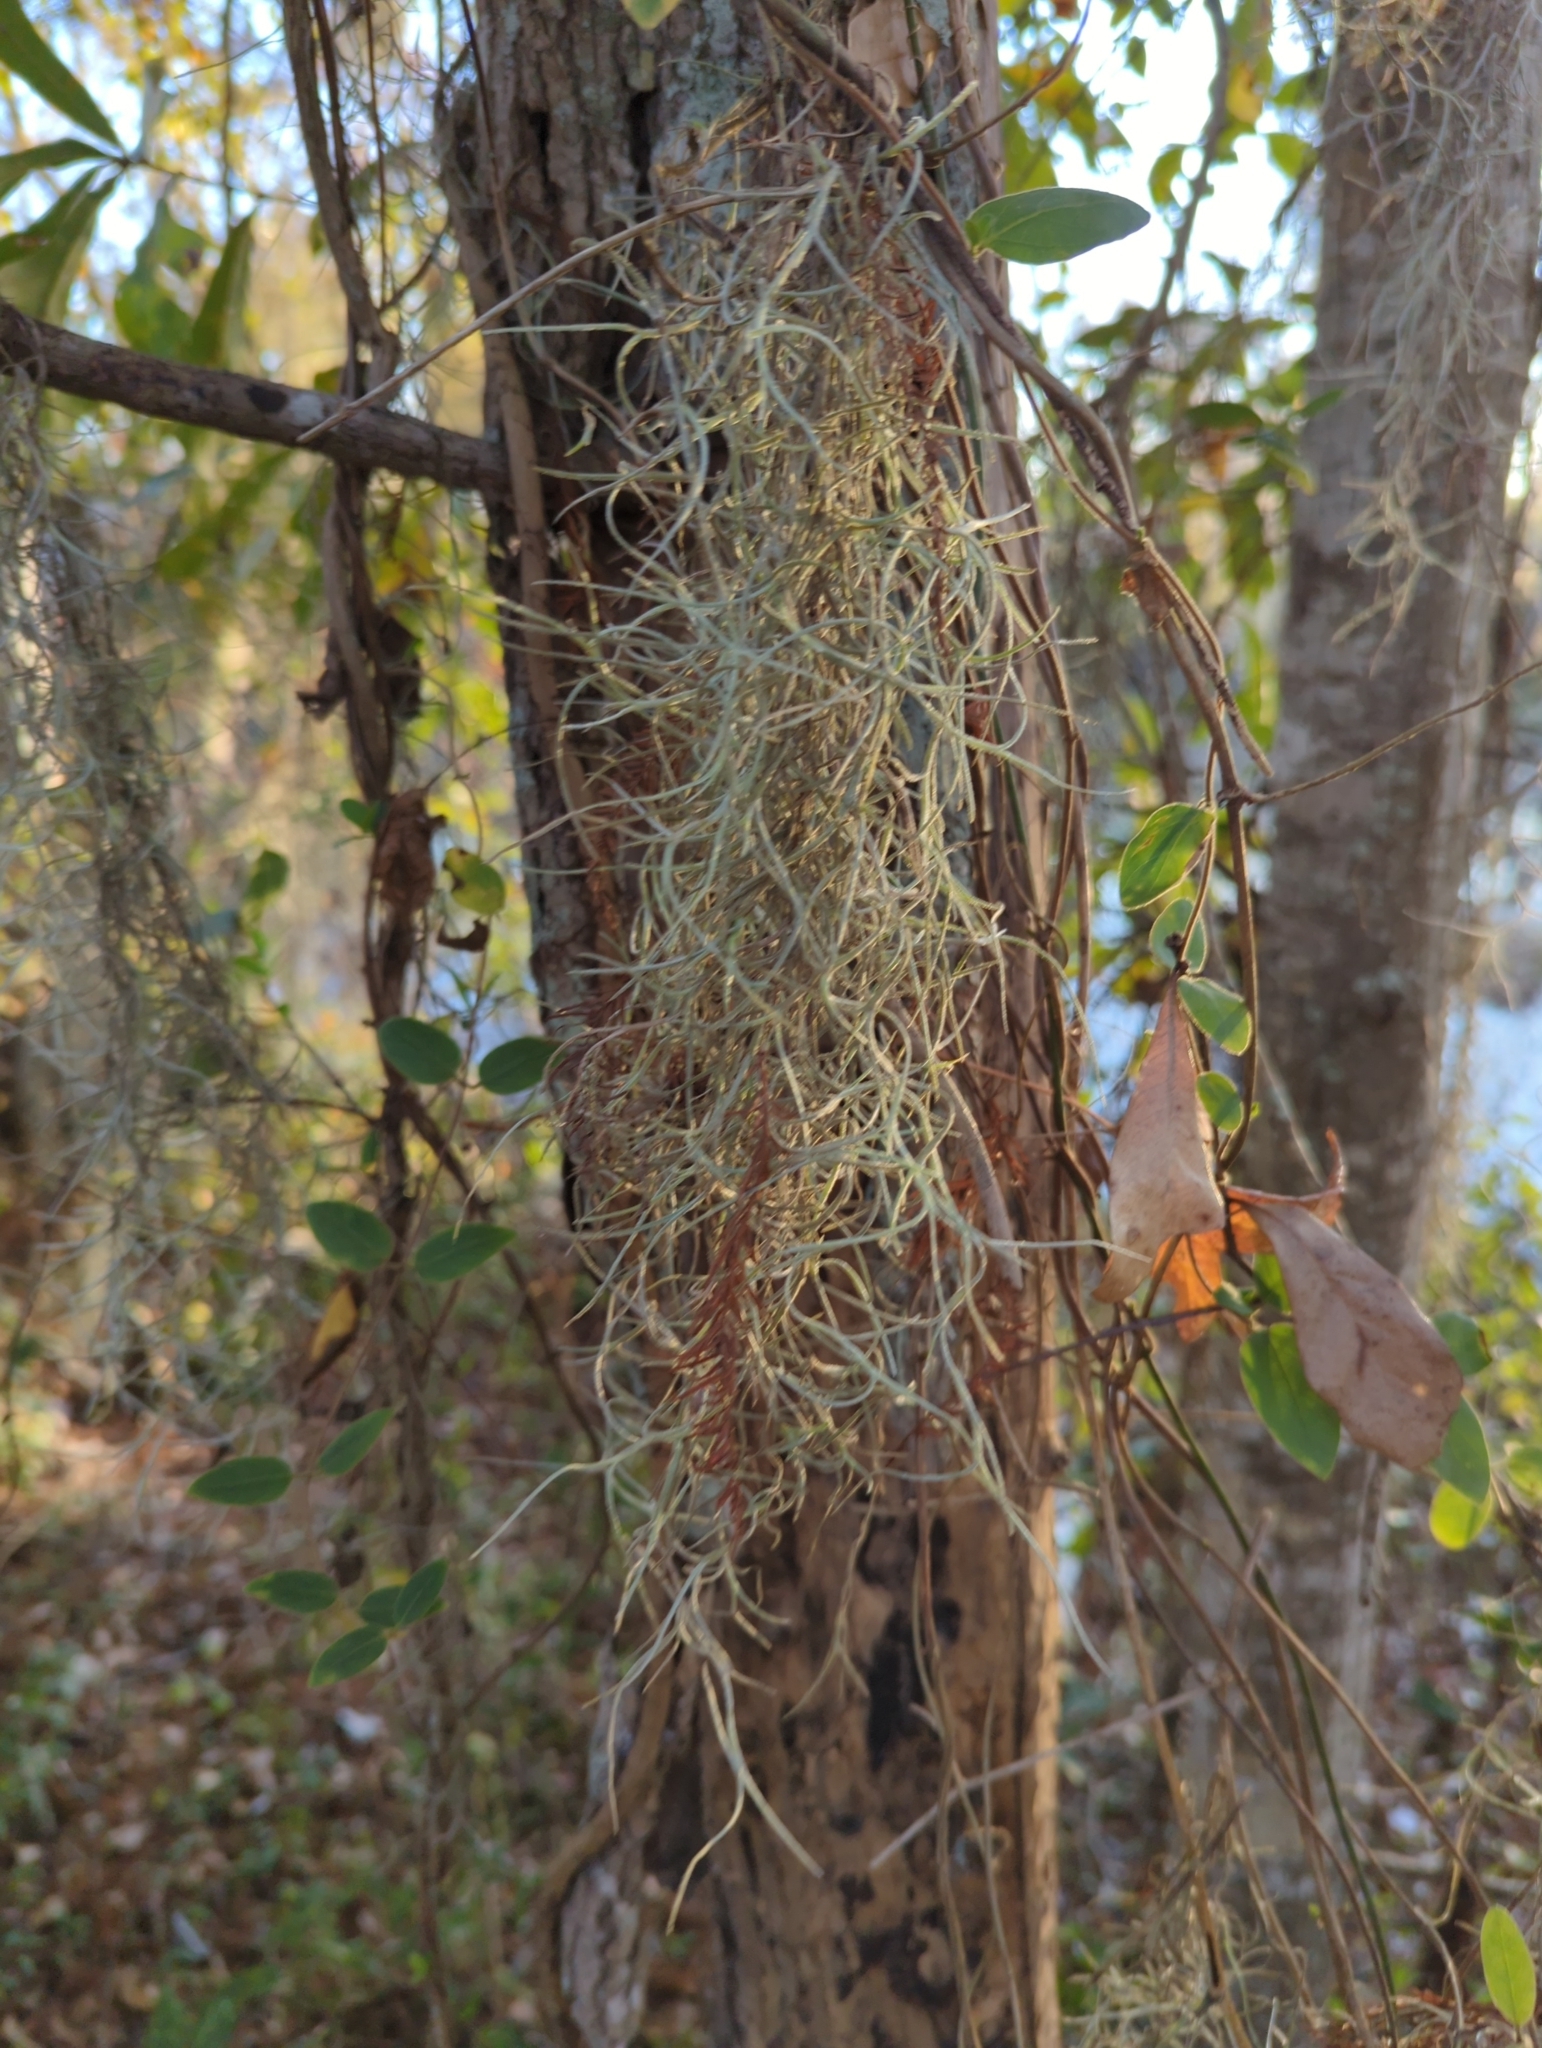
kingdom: Plantae
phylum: Tracheophyta
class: Liliopsida
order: Poales
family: Bromeliaceae
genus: Tillandsia
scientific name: Tillandsia usneoides
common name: Spanish moss
